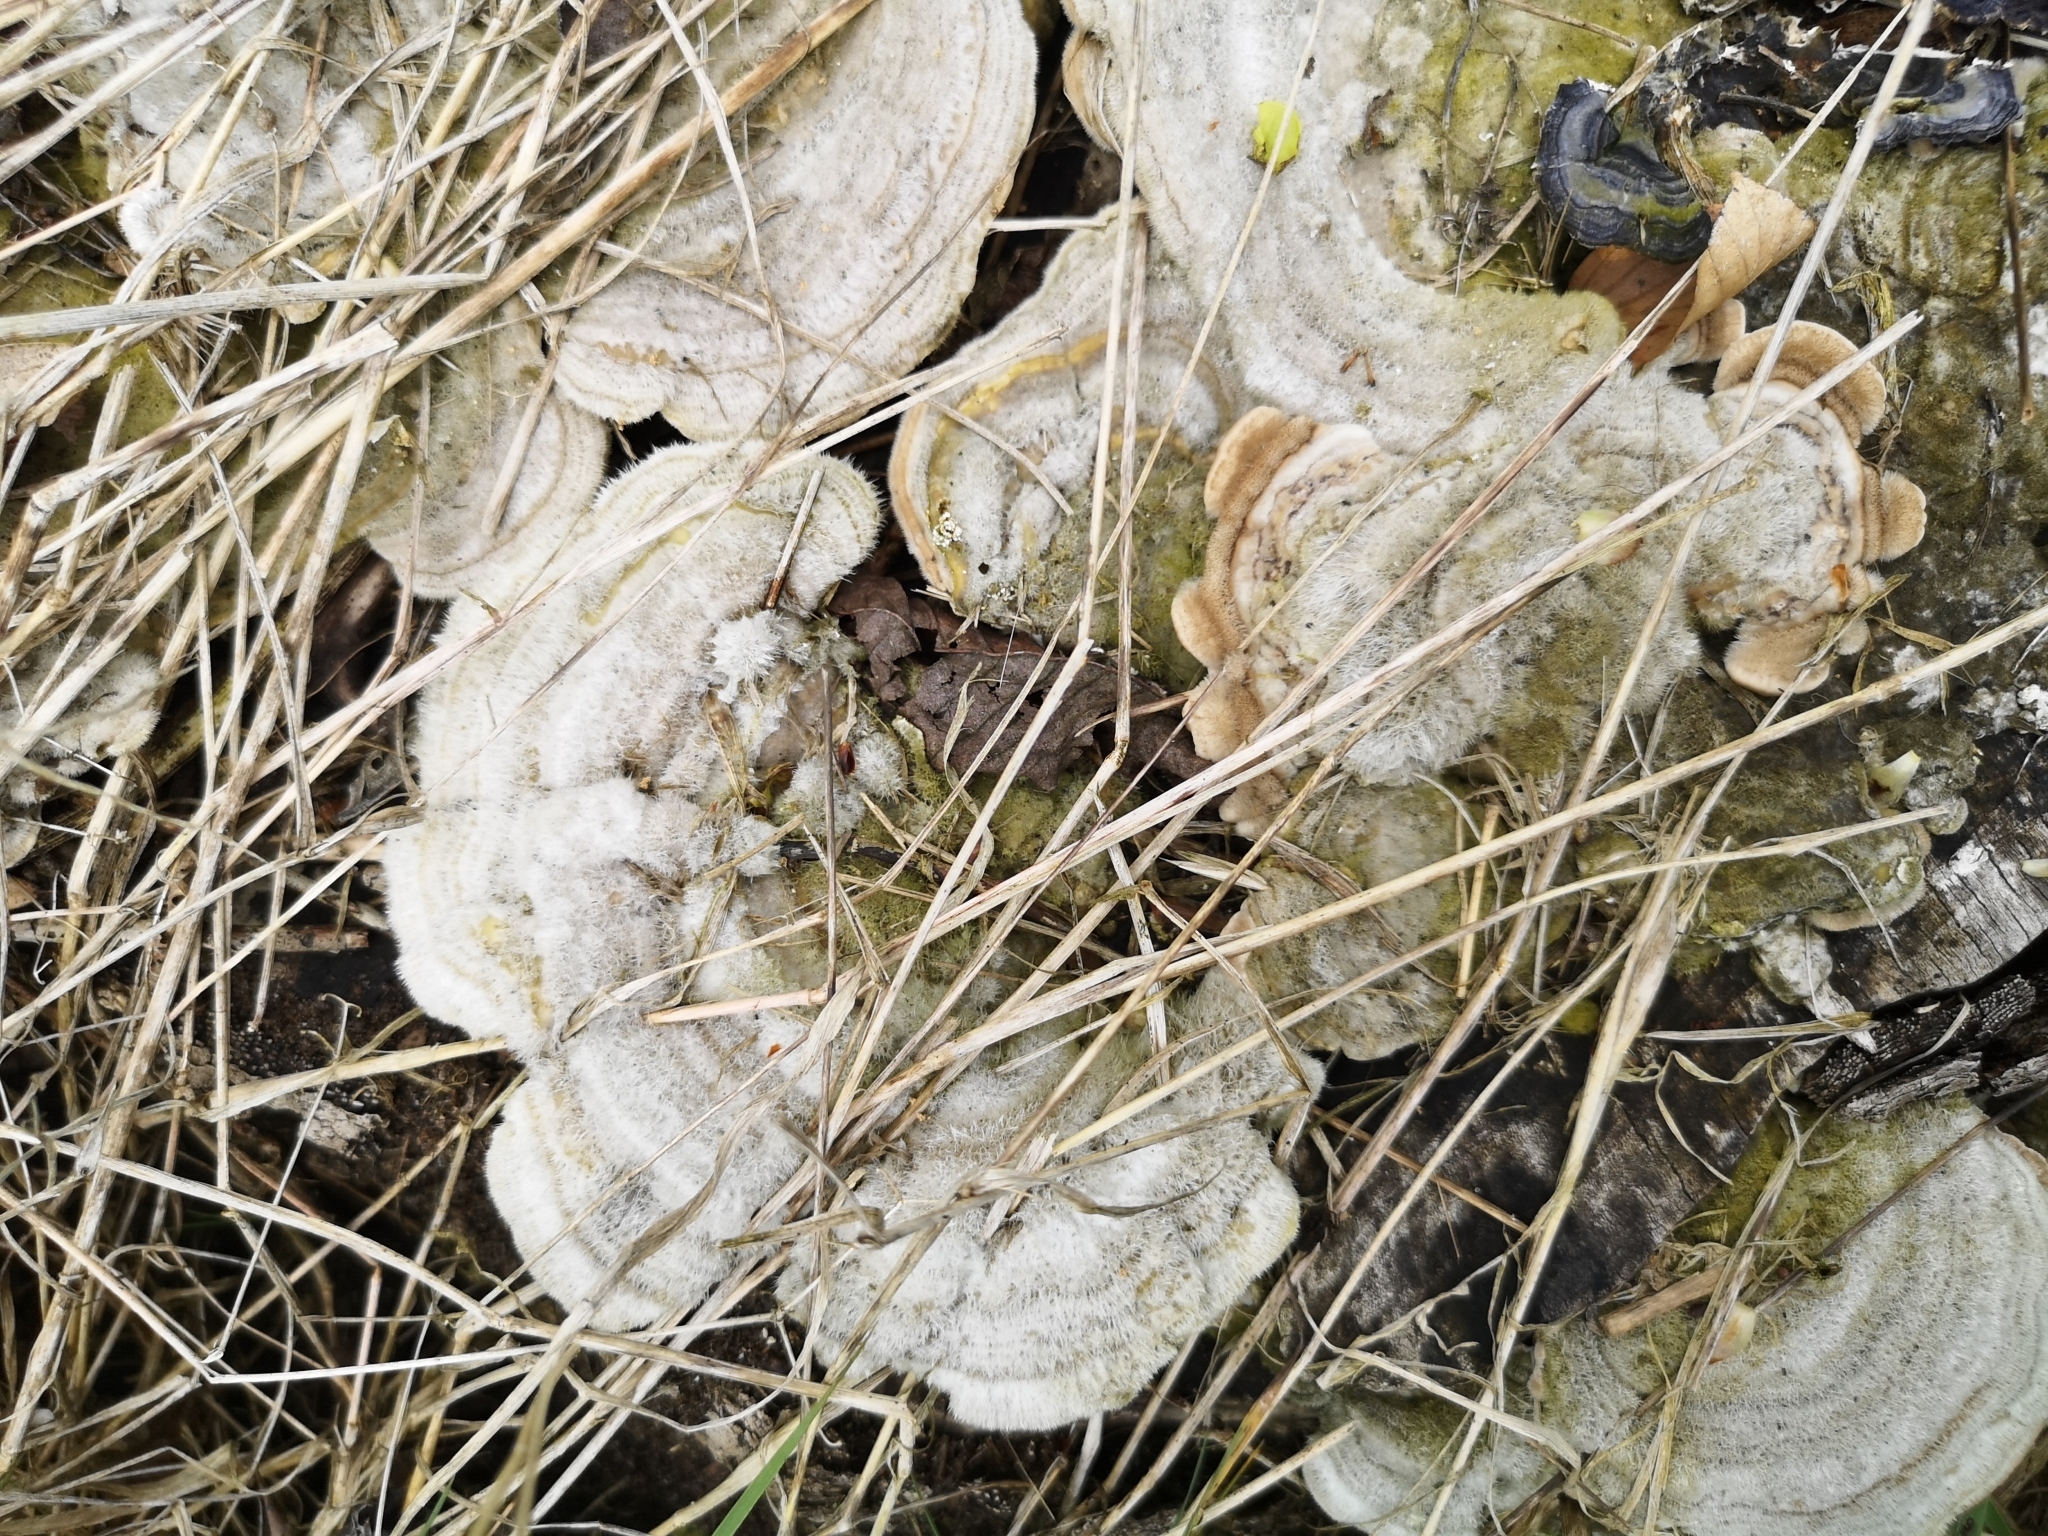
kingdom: Fungi
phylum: Basidiomycota
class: Agaricomycetes
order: Polyporales
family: Polyporaceae
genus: Trametes
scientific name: Trametes hirsuta
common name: Hairy bracket
